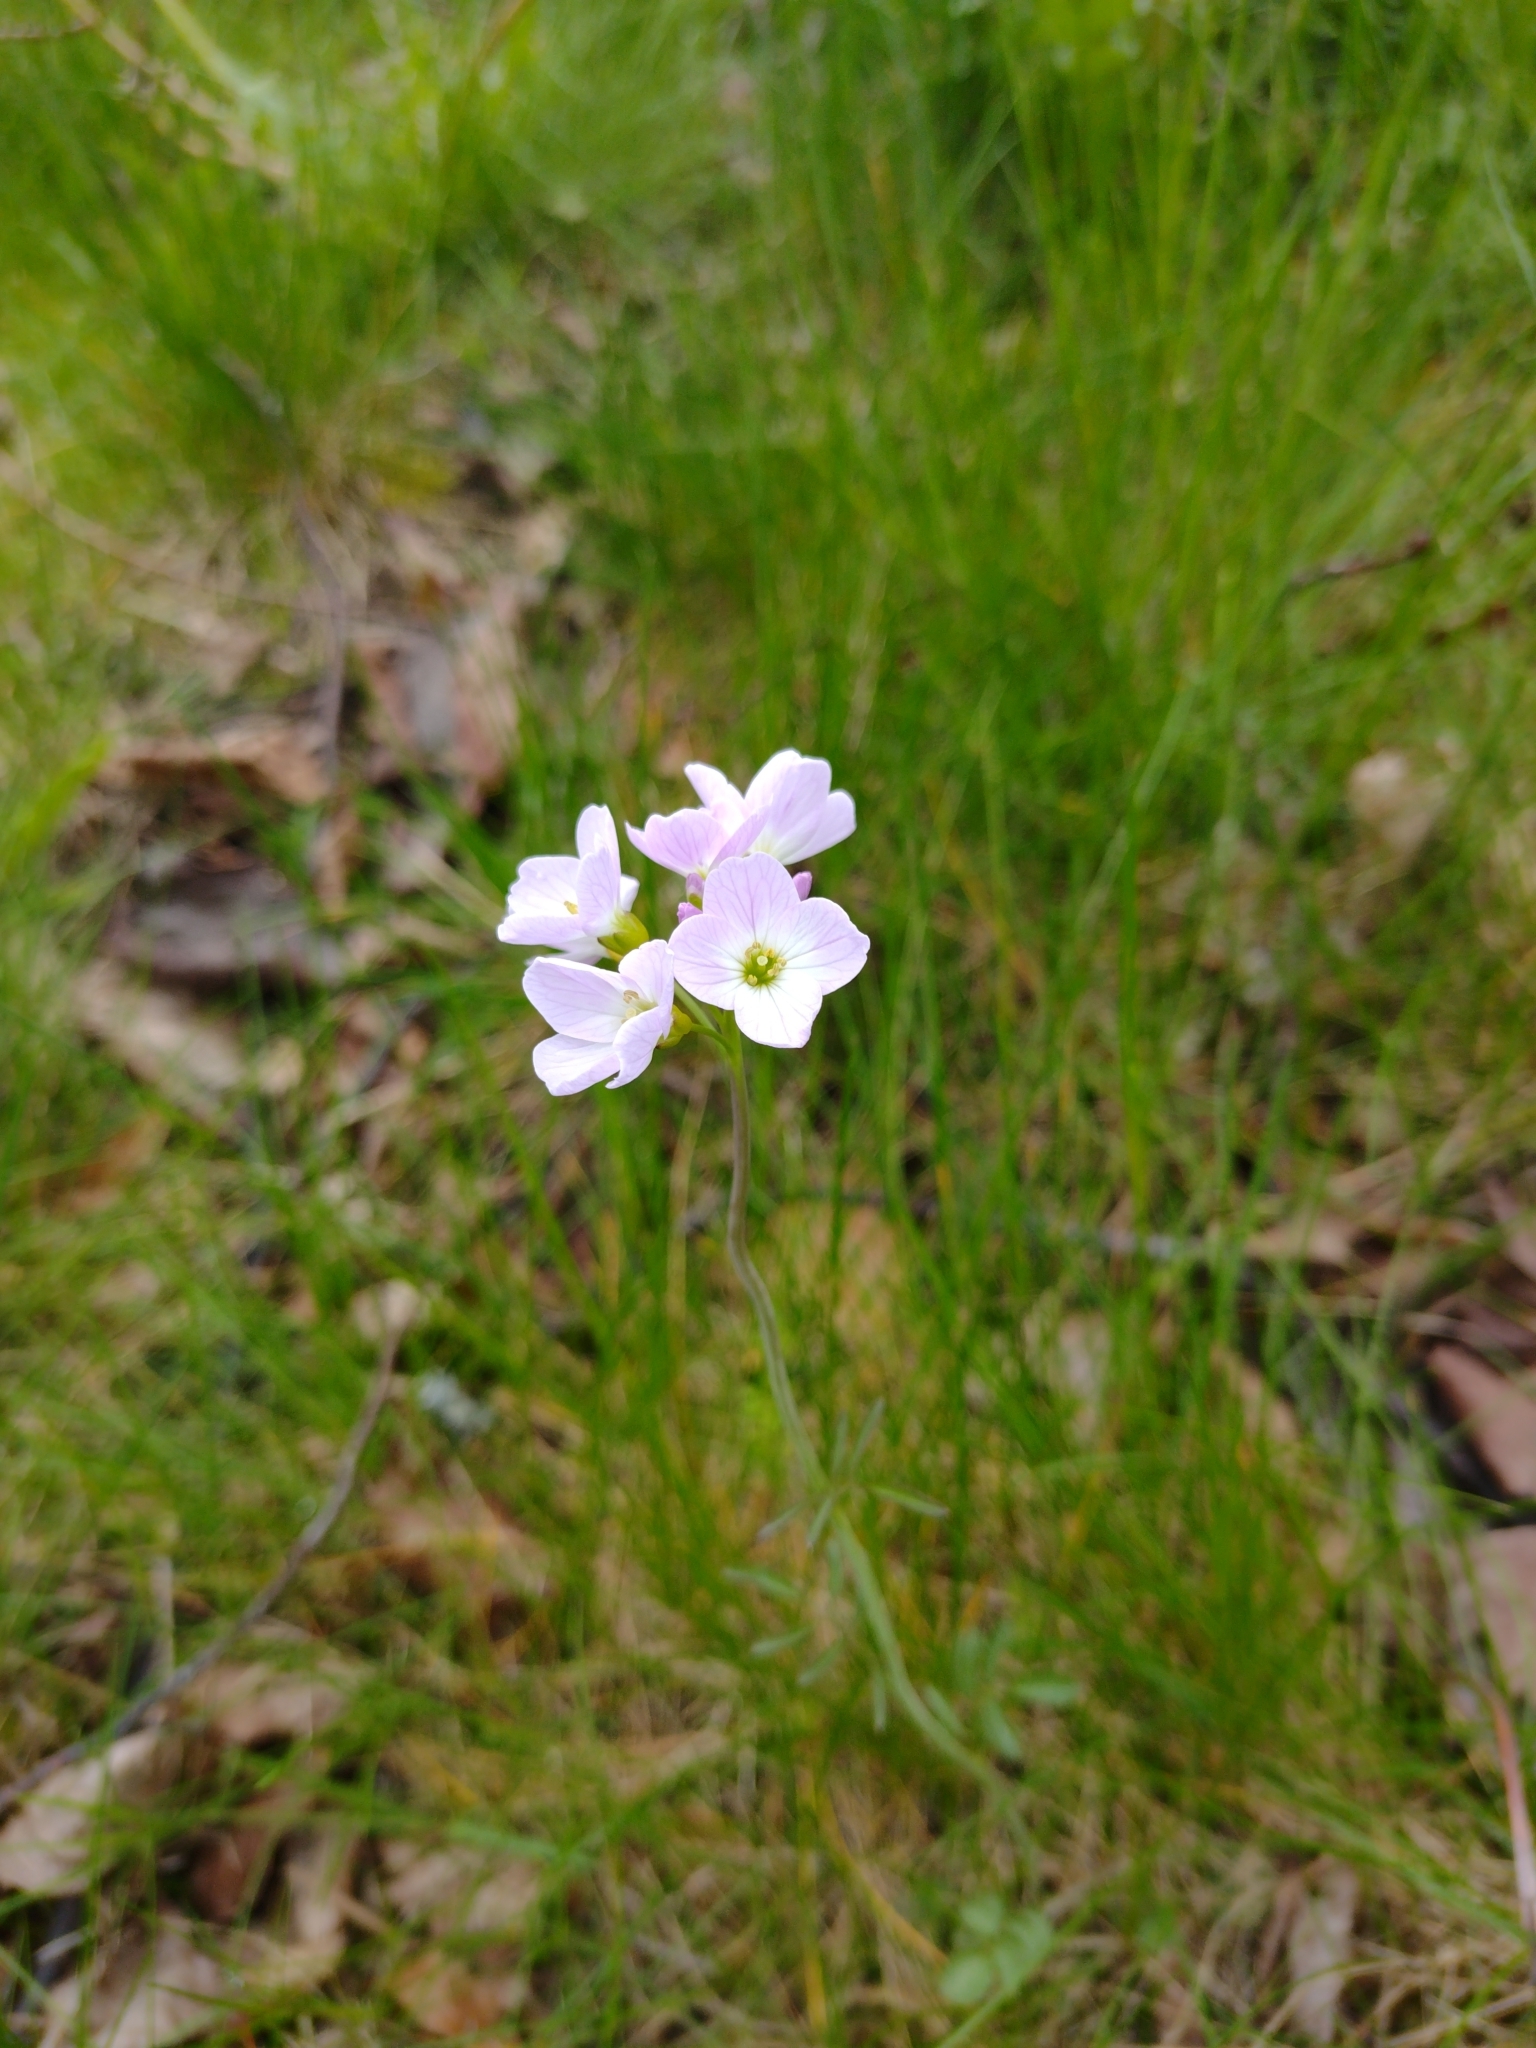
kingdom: Plantae
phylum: Tracheophyta
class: Magnoliopsida
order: Brassicales
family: Brassicaceae
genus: Cardamine
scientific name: Cardamine pratensis
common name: Cuckoo flower
